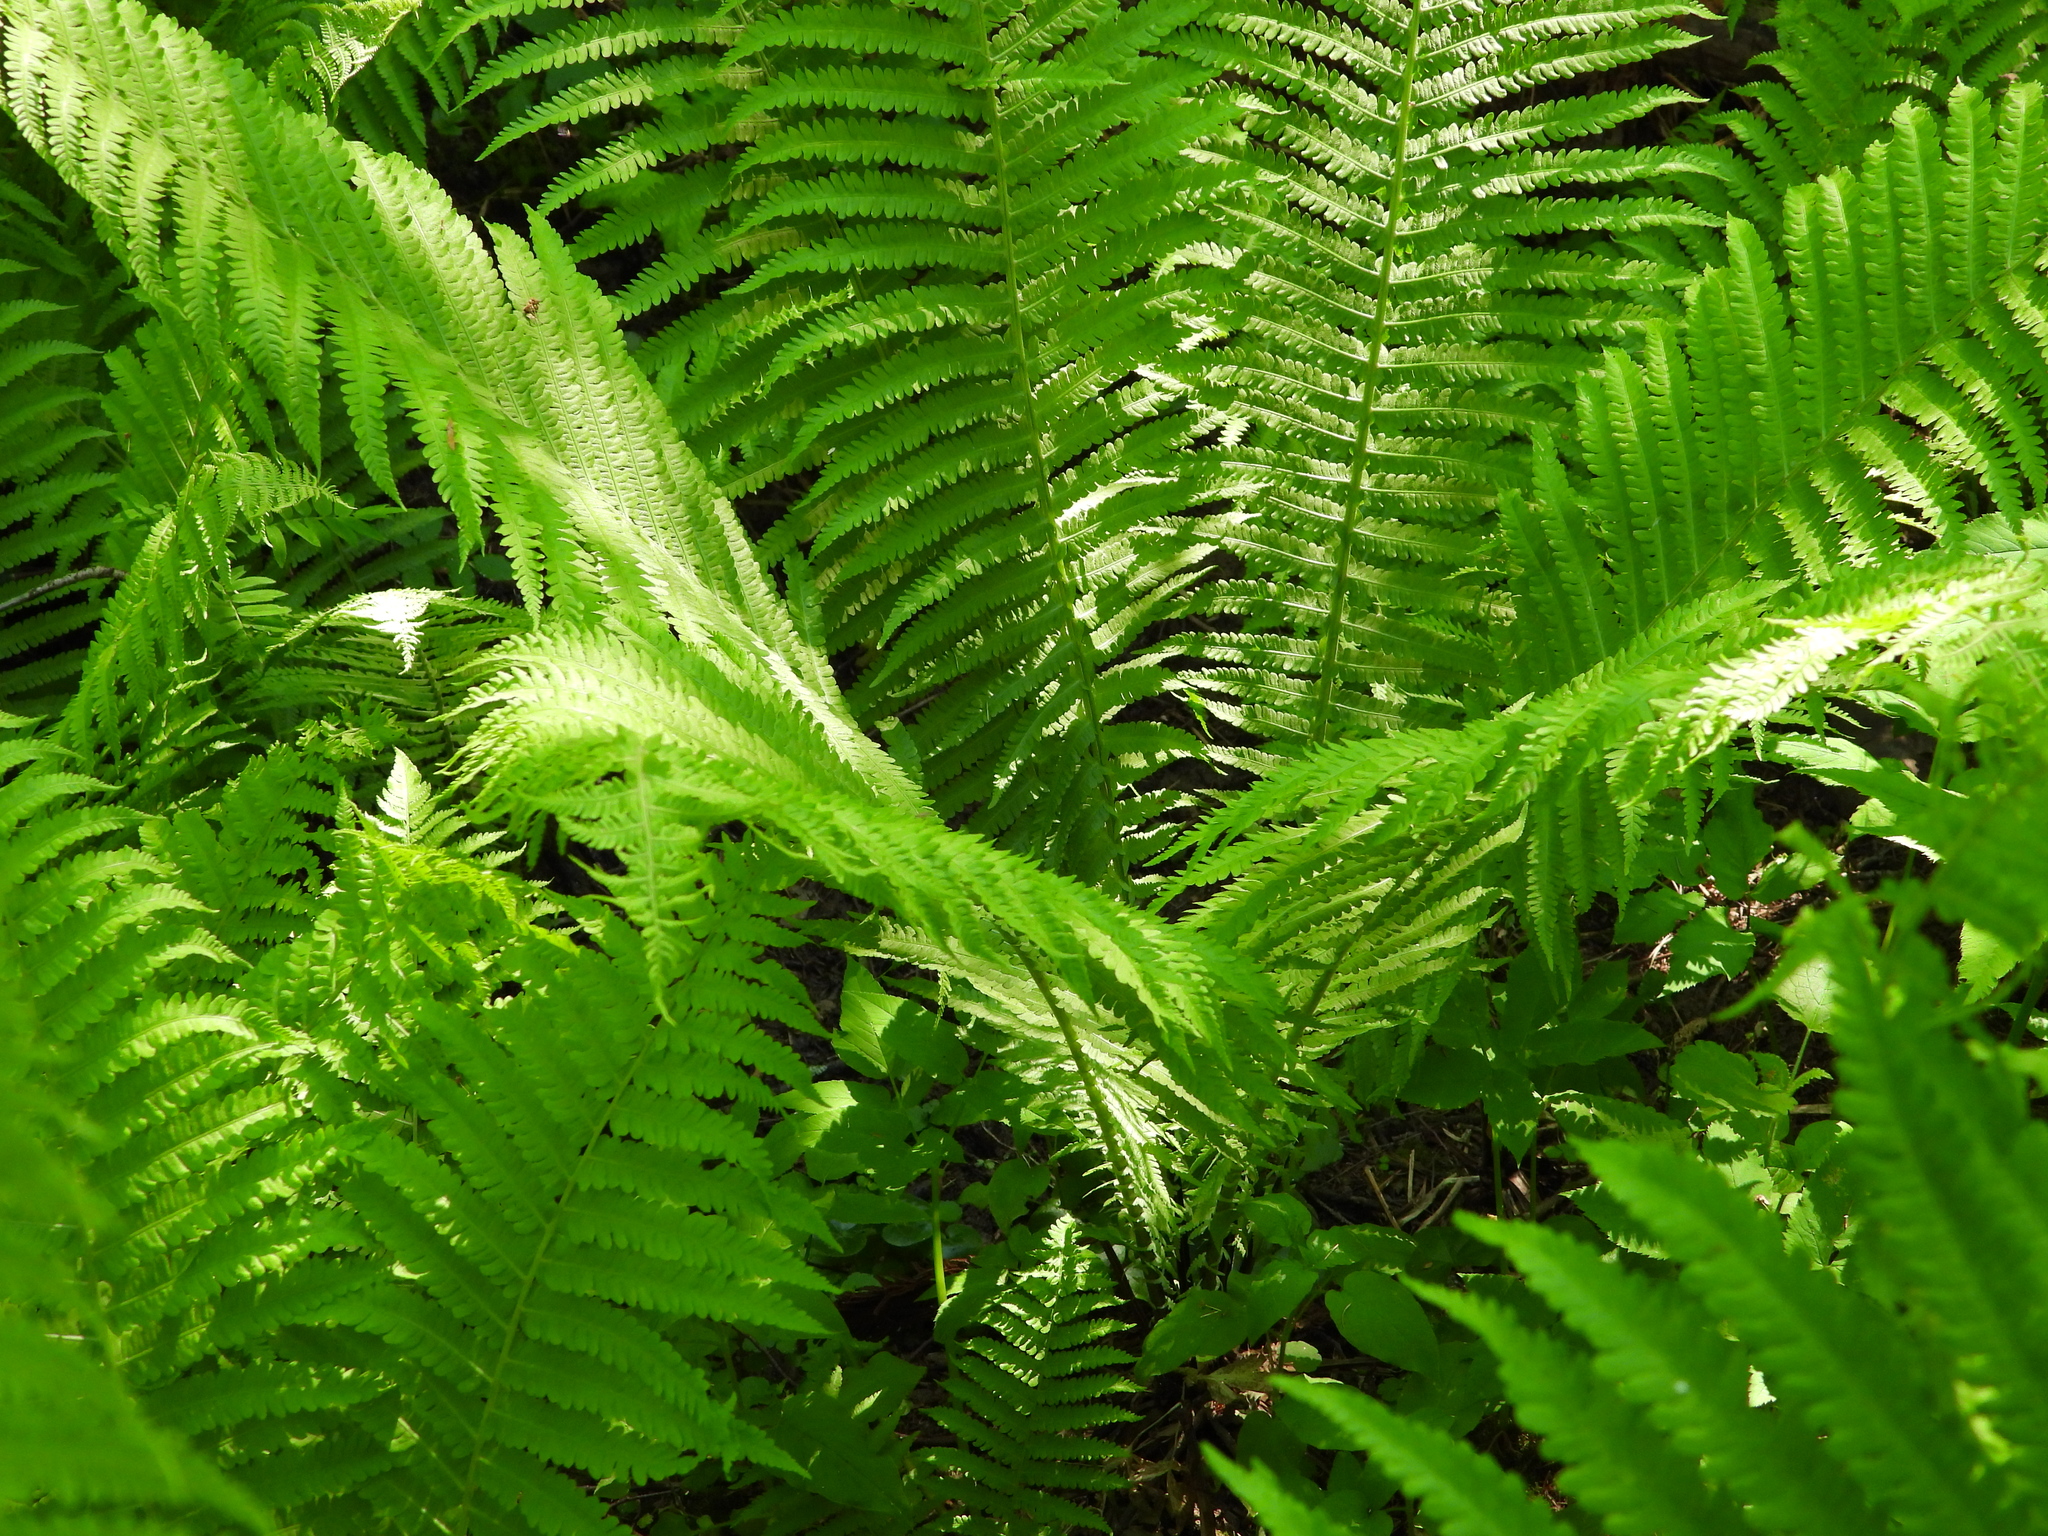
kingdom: Plantae
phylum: Tracheophyta
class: Polypodiopsida
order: Polypodiales
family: Onocleaceae
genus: Matteuccia
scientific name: Matteuccia struthiopteris
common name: Ostrich fern
